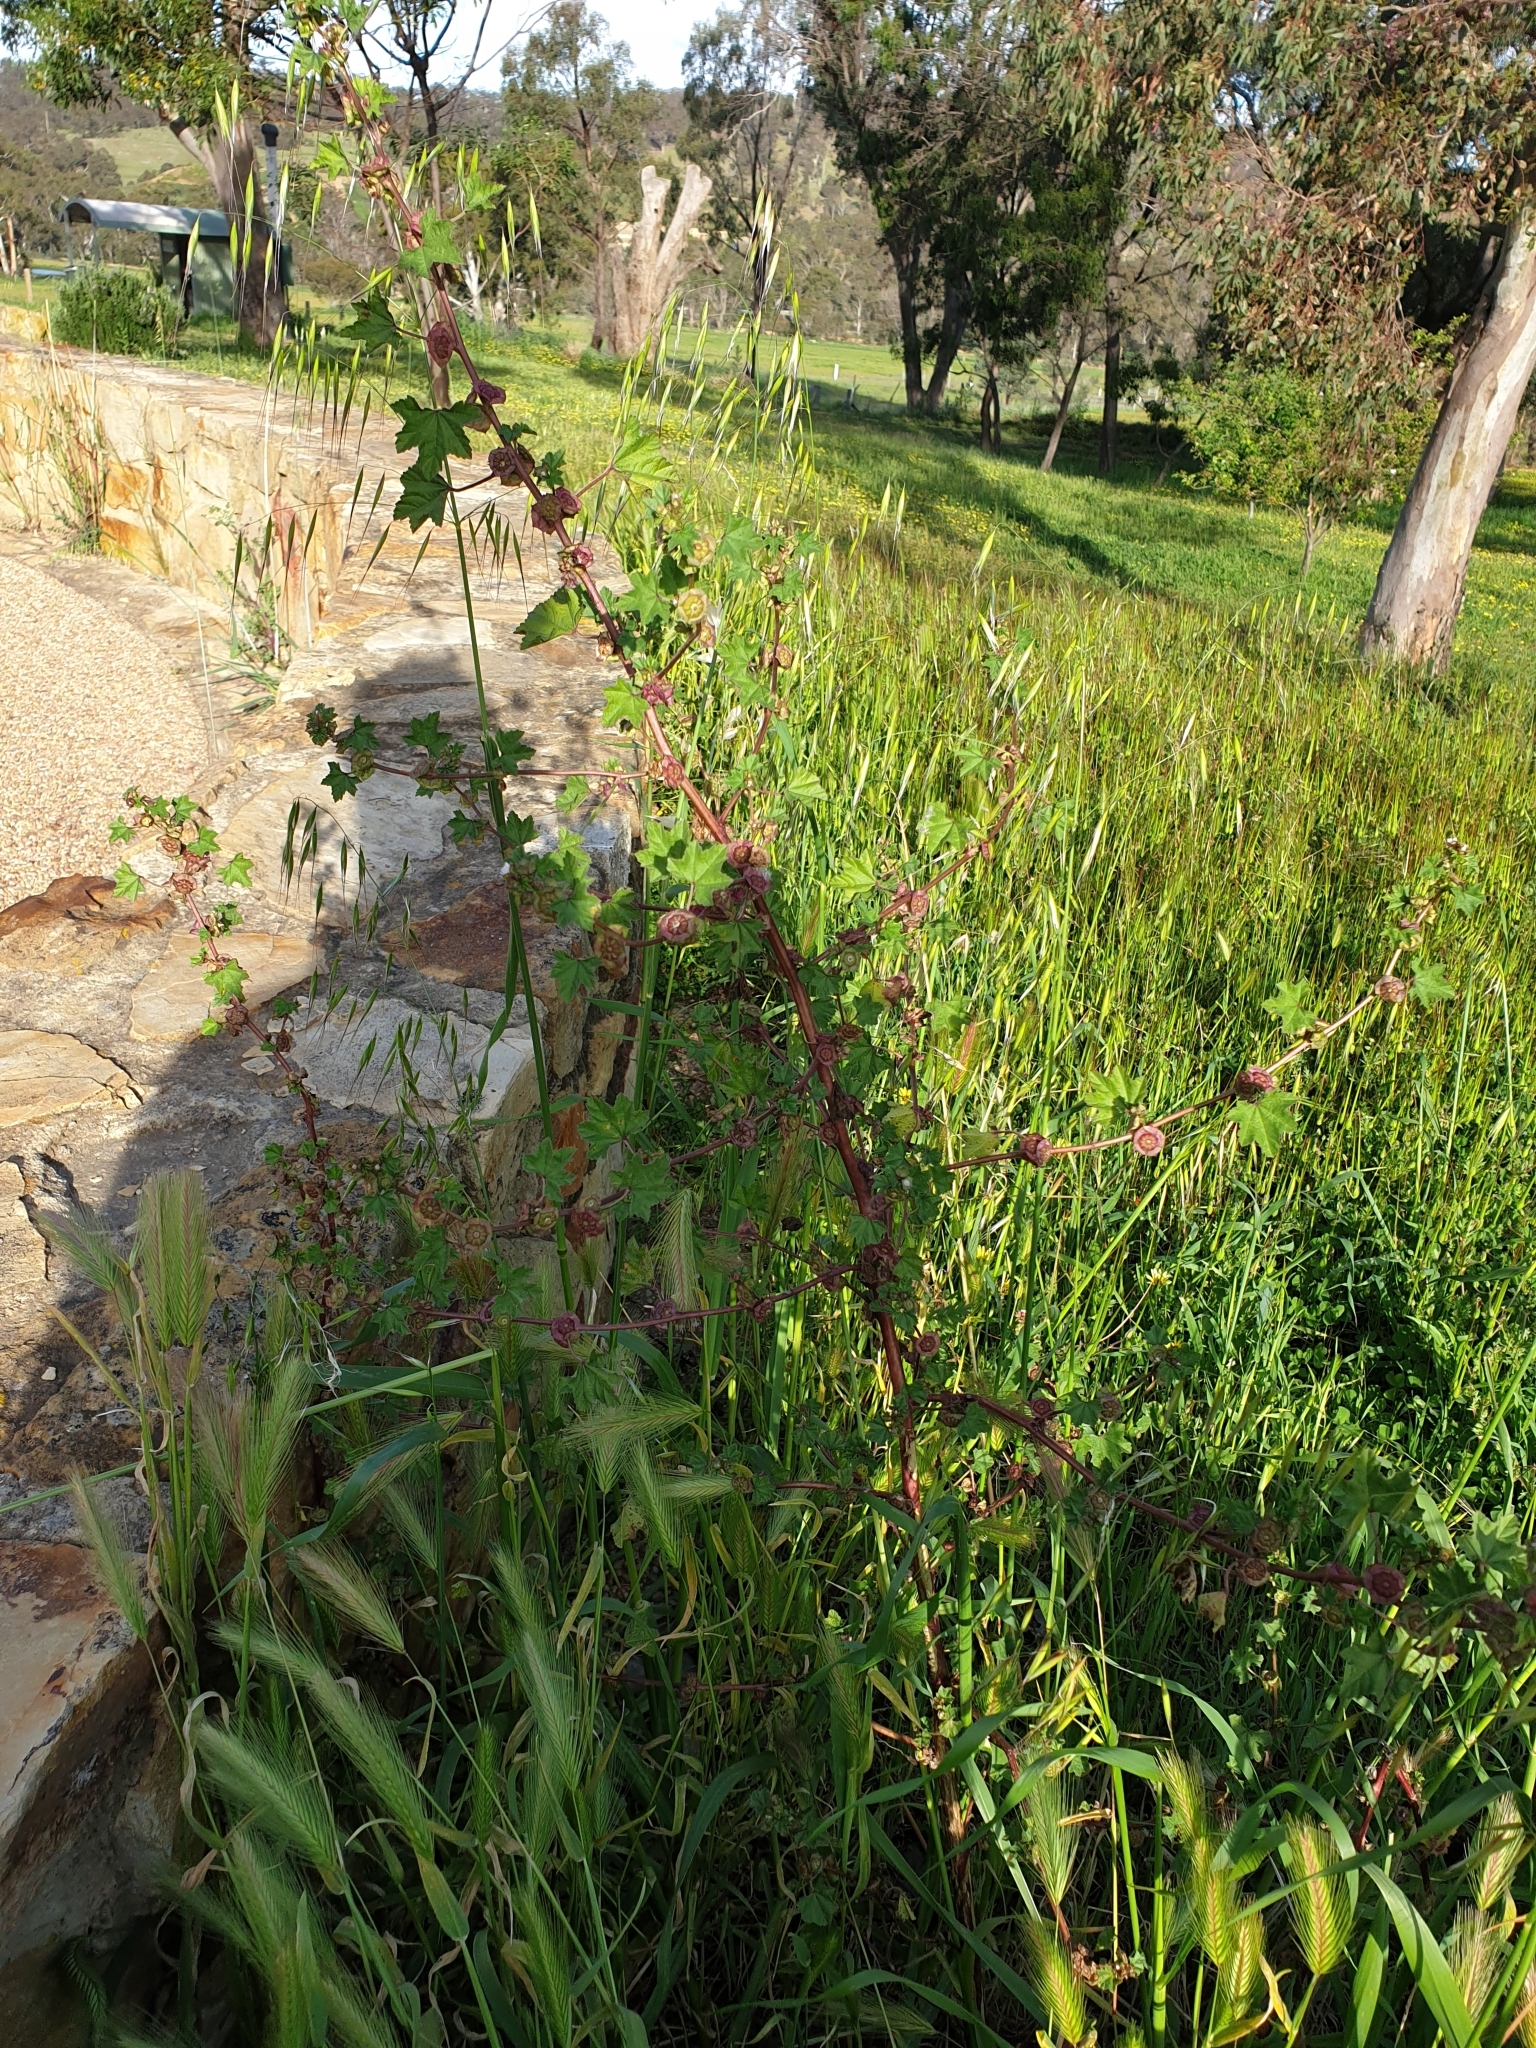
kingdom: Plantae
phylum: Tracheophyta
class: Magnoliopsida
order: Malvales
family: Malvaceae
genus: Malva
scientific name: Malva parviflora
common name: Least mallow
